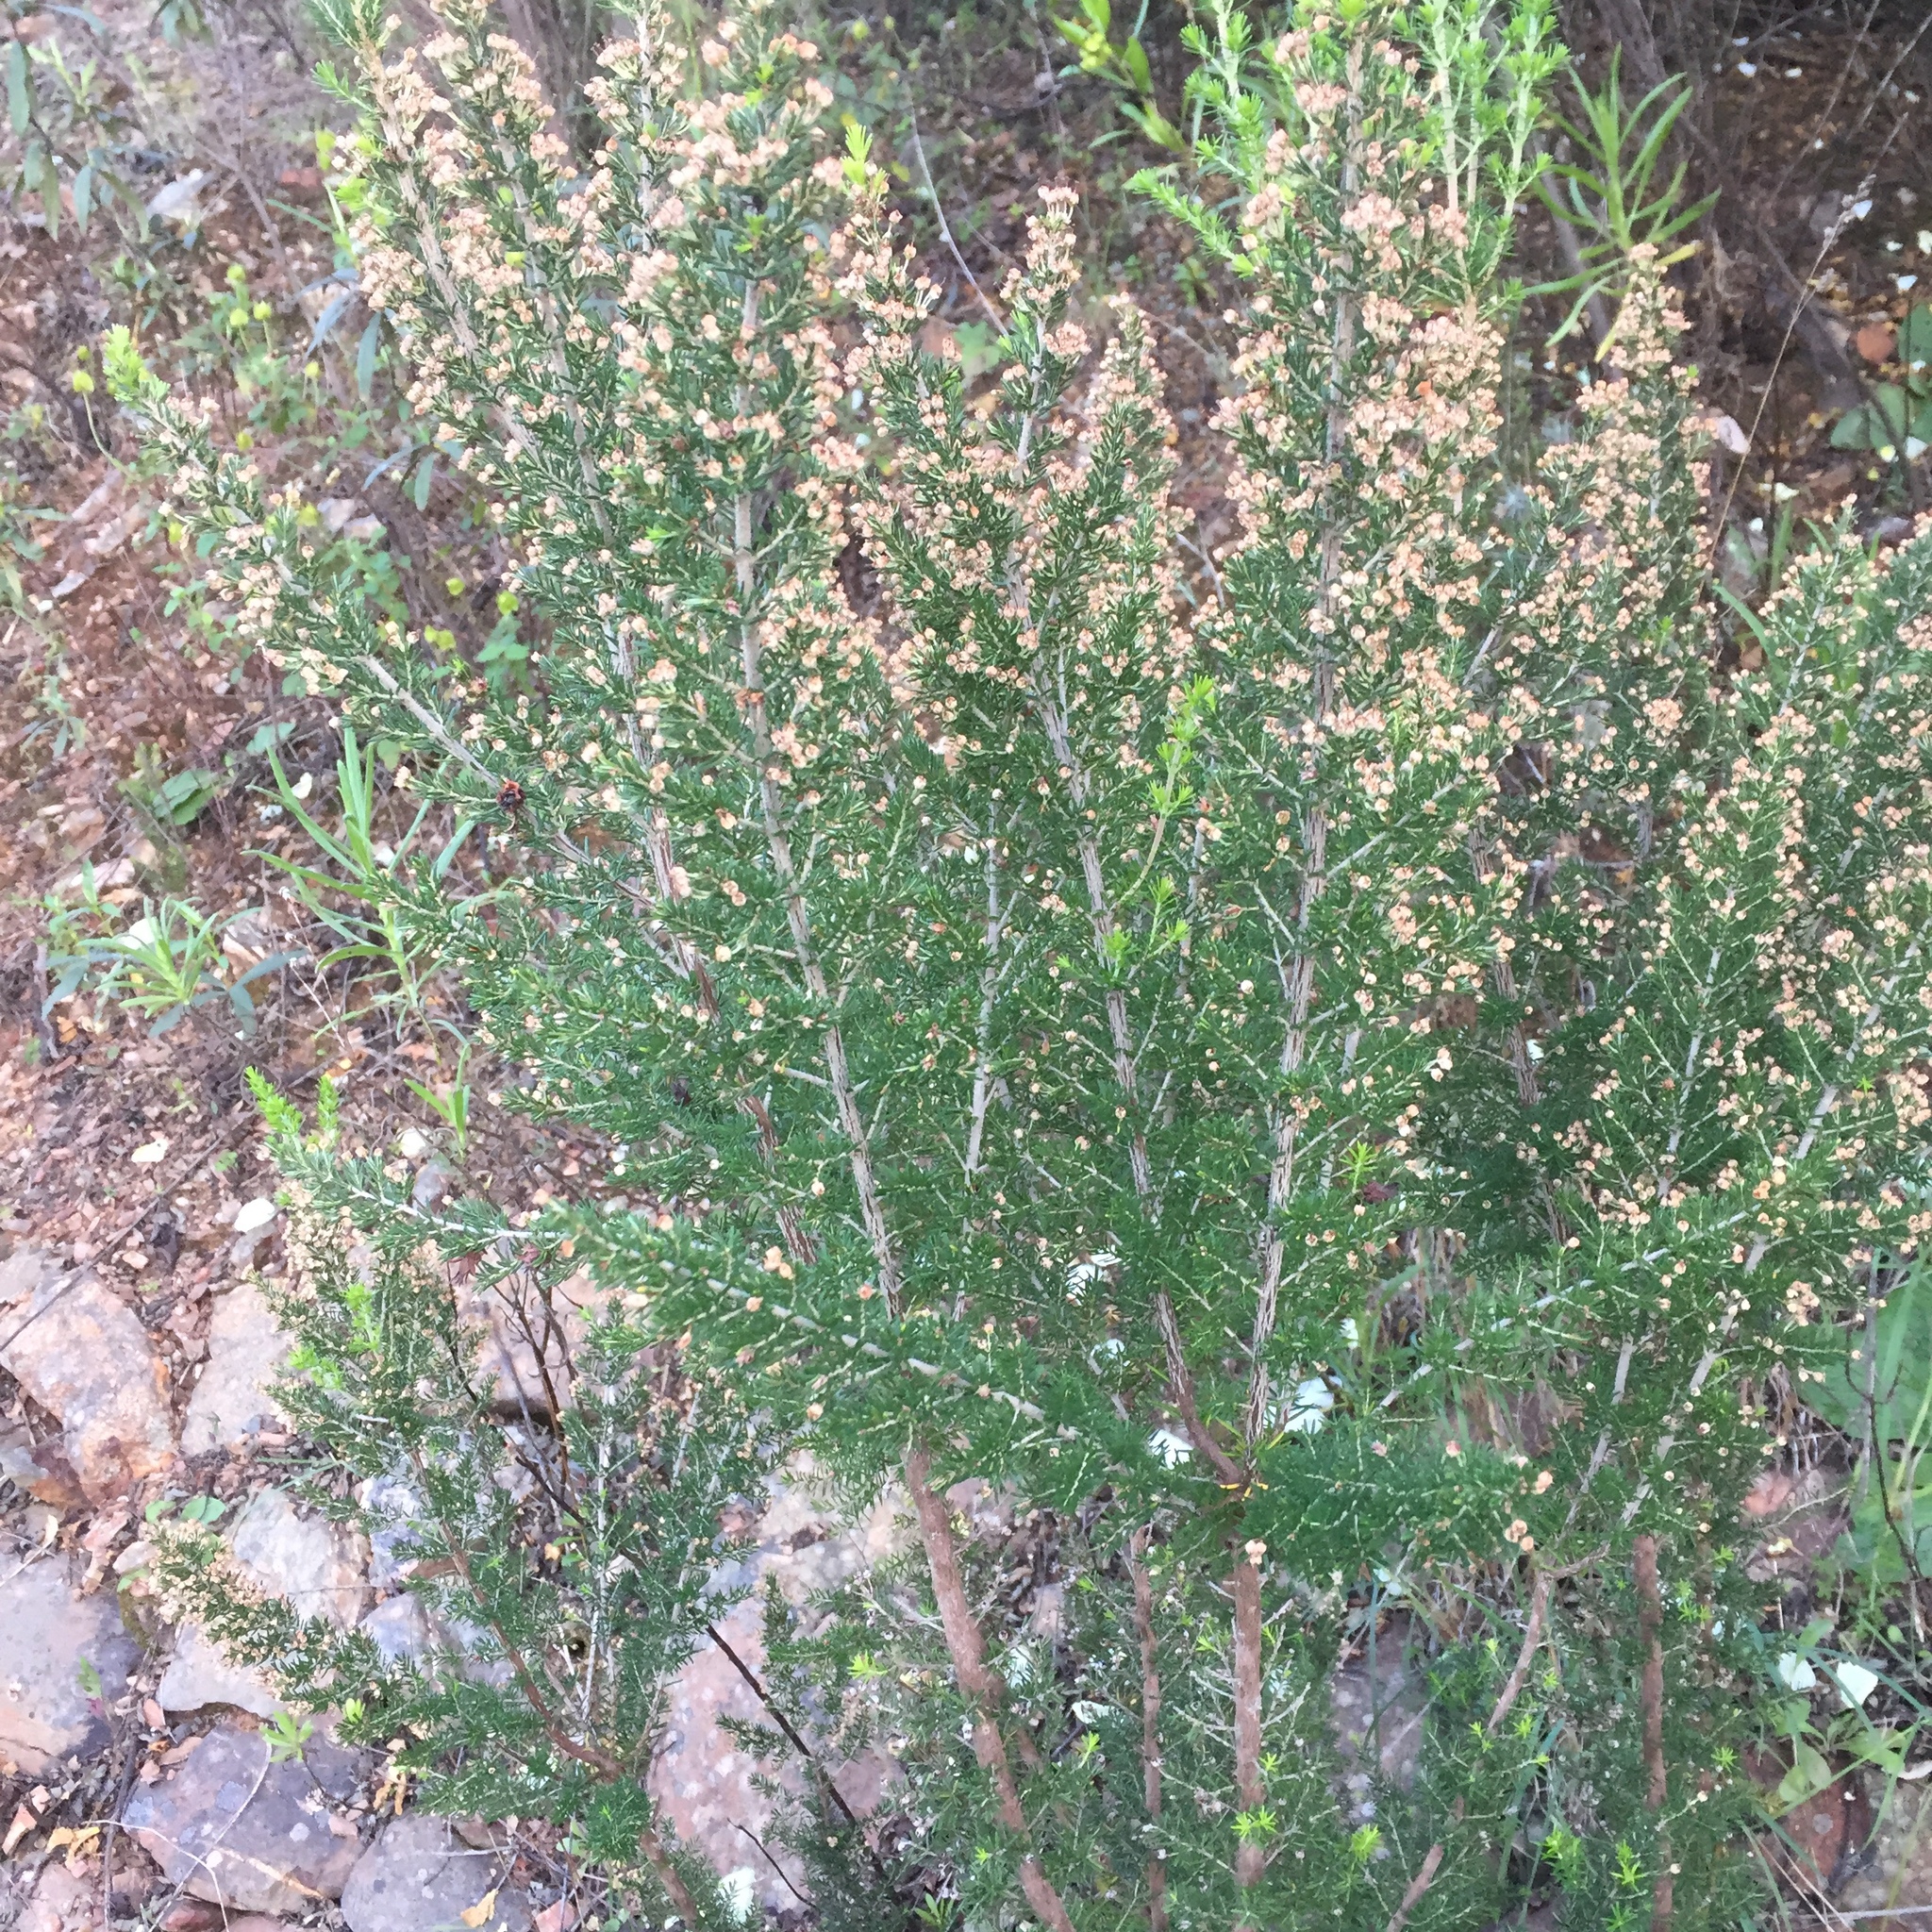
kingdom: Plantae
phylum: Tracheophyta
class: Magnoliopsida
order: Ericales
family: Ericaceae
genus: Erica
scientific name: Erica arborea
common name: Tree heath
